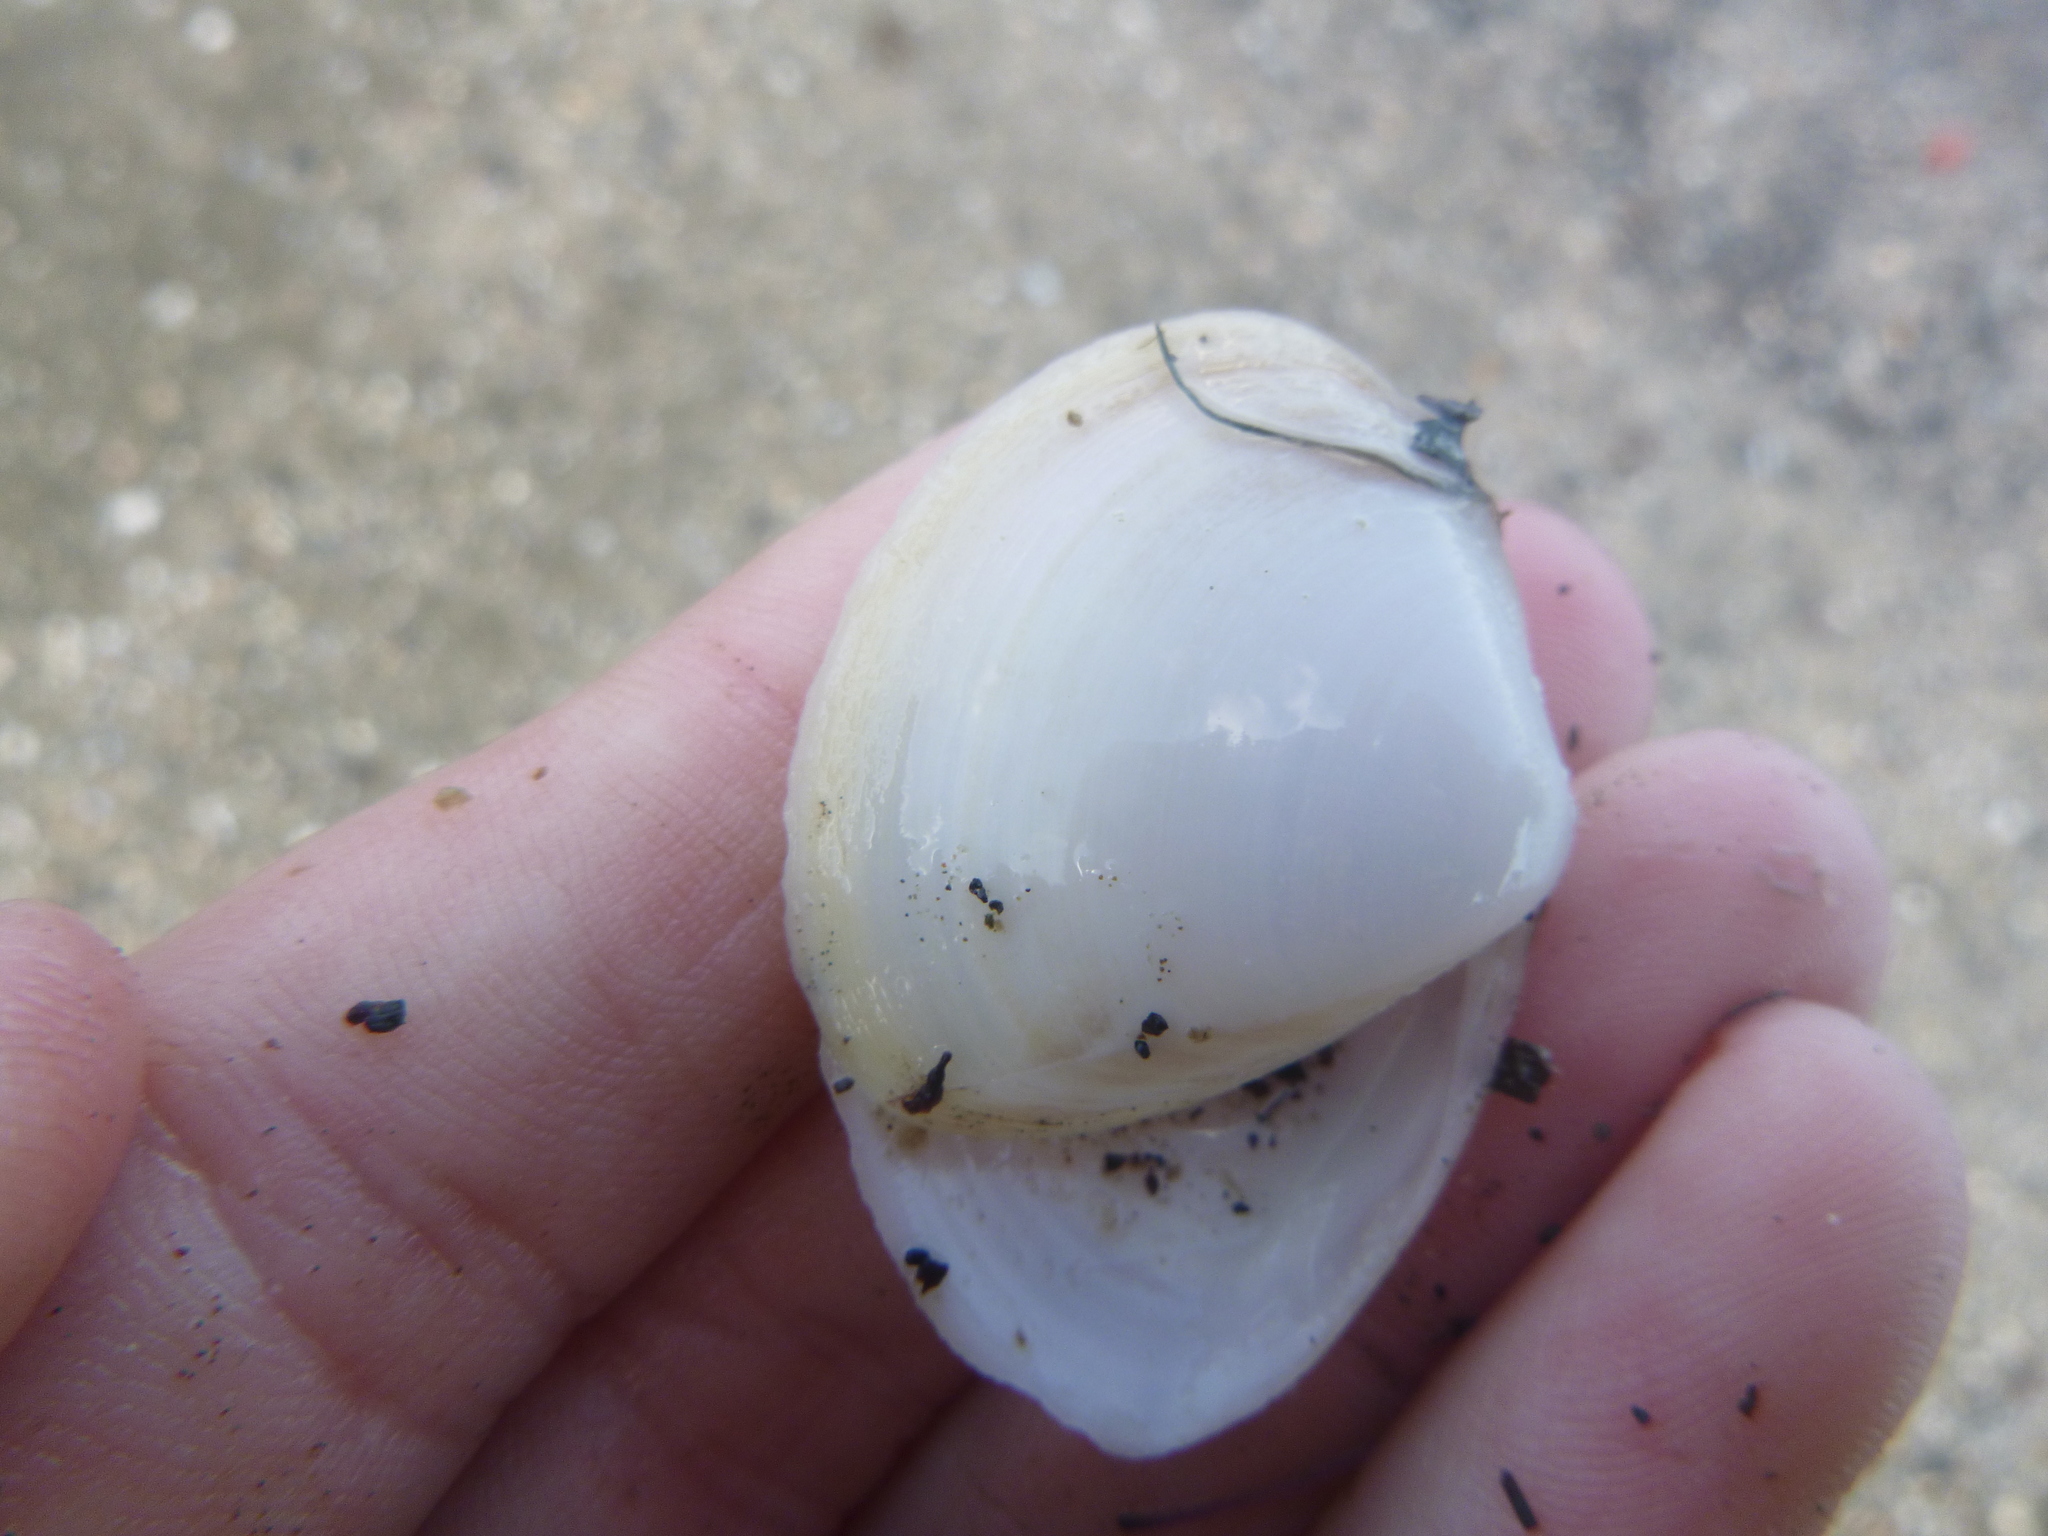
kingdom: Animalia
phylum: Mollusca
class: Bivalvia
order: Venerida
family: Mactridae
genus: Spisula
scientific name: Spisula discors
